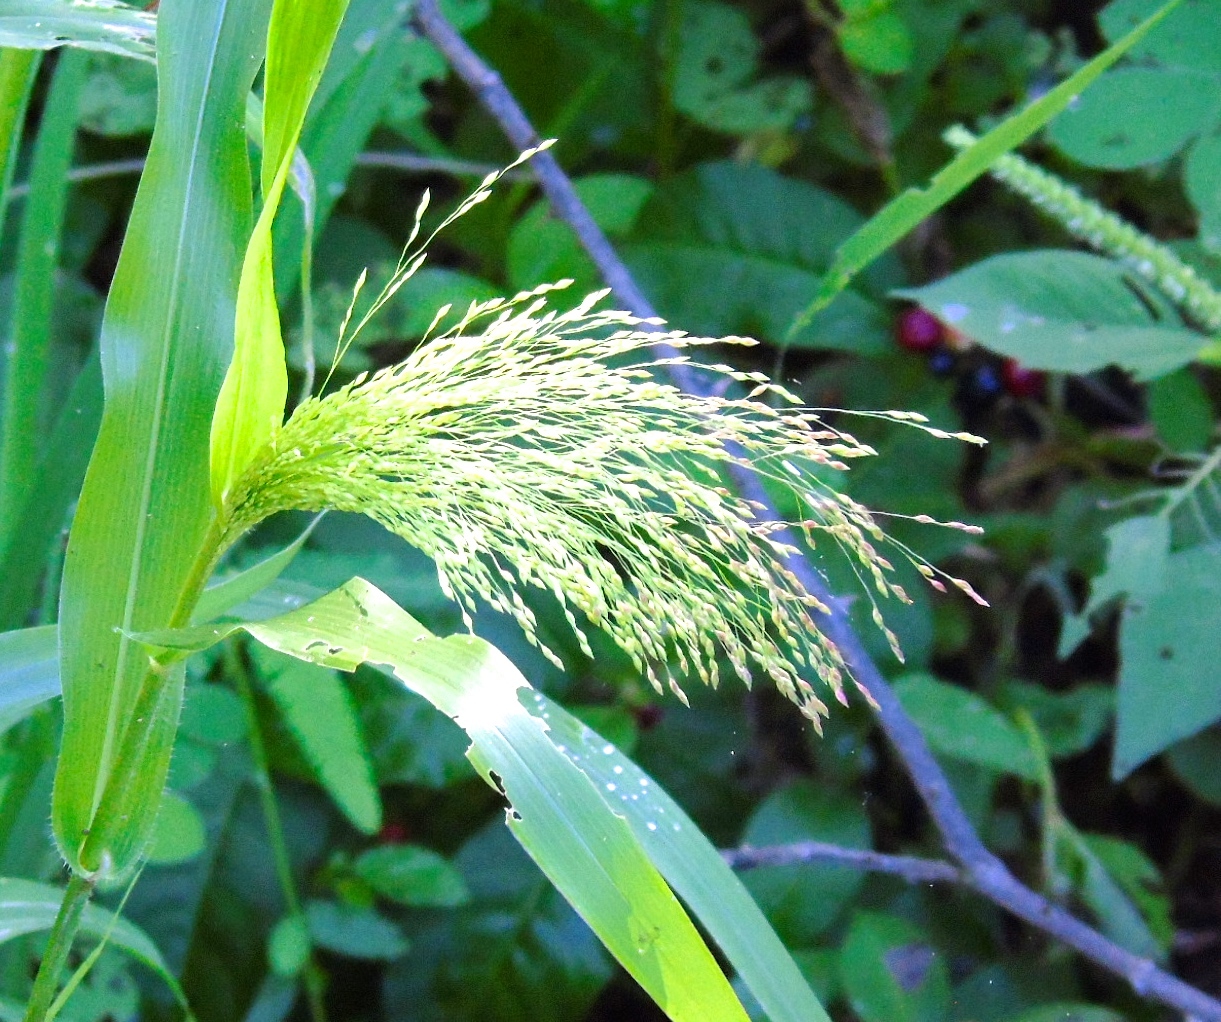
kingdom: Plantae
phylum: Tracheophyta
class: Liliopsida
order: Poales
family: Poaceae
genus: Bothriochloa
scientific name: Bothriochloa
